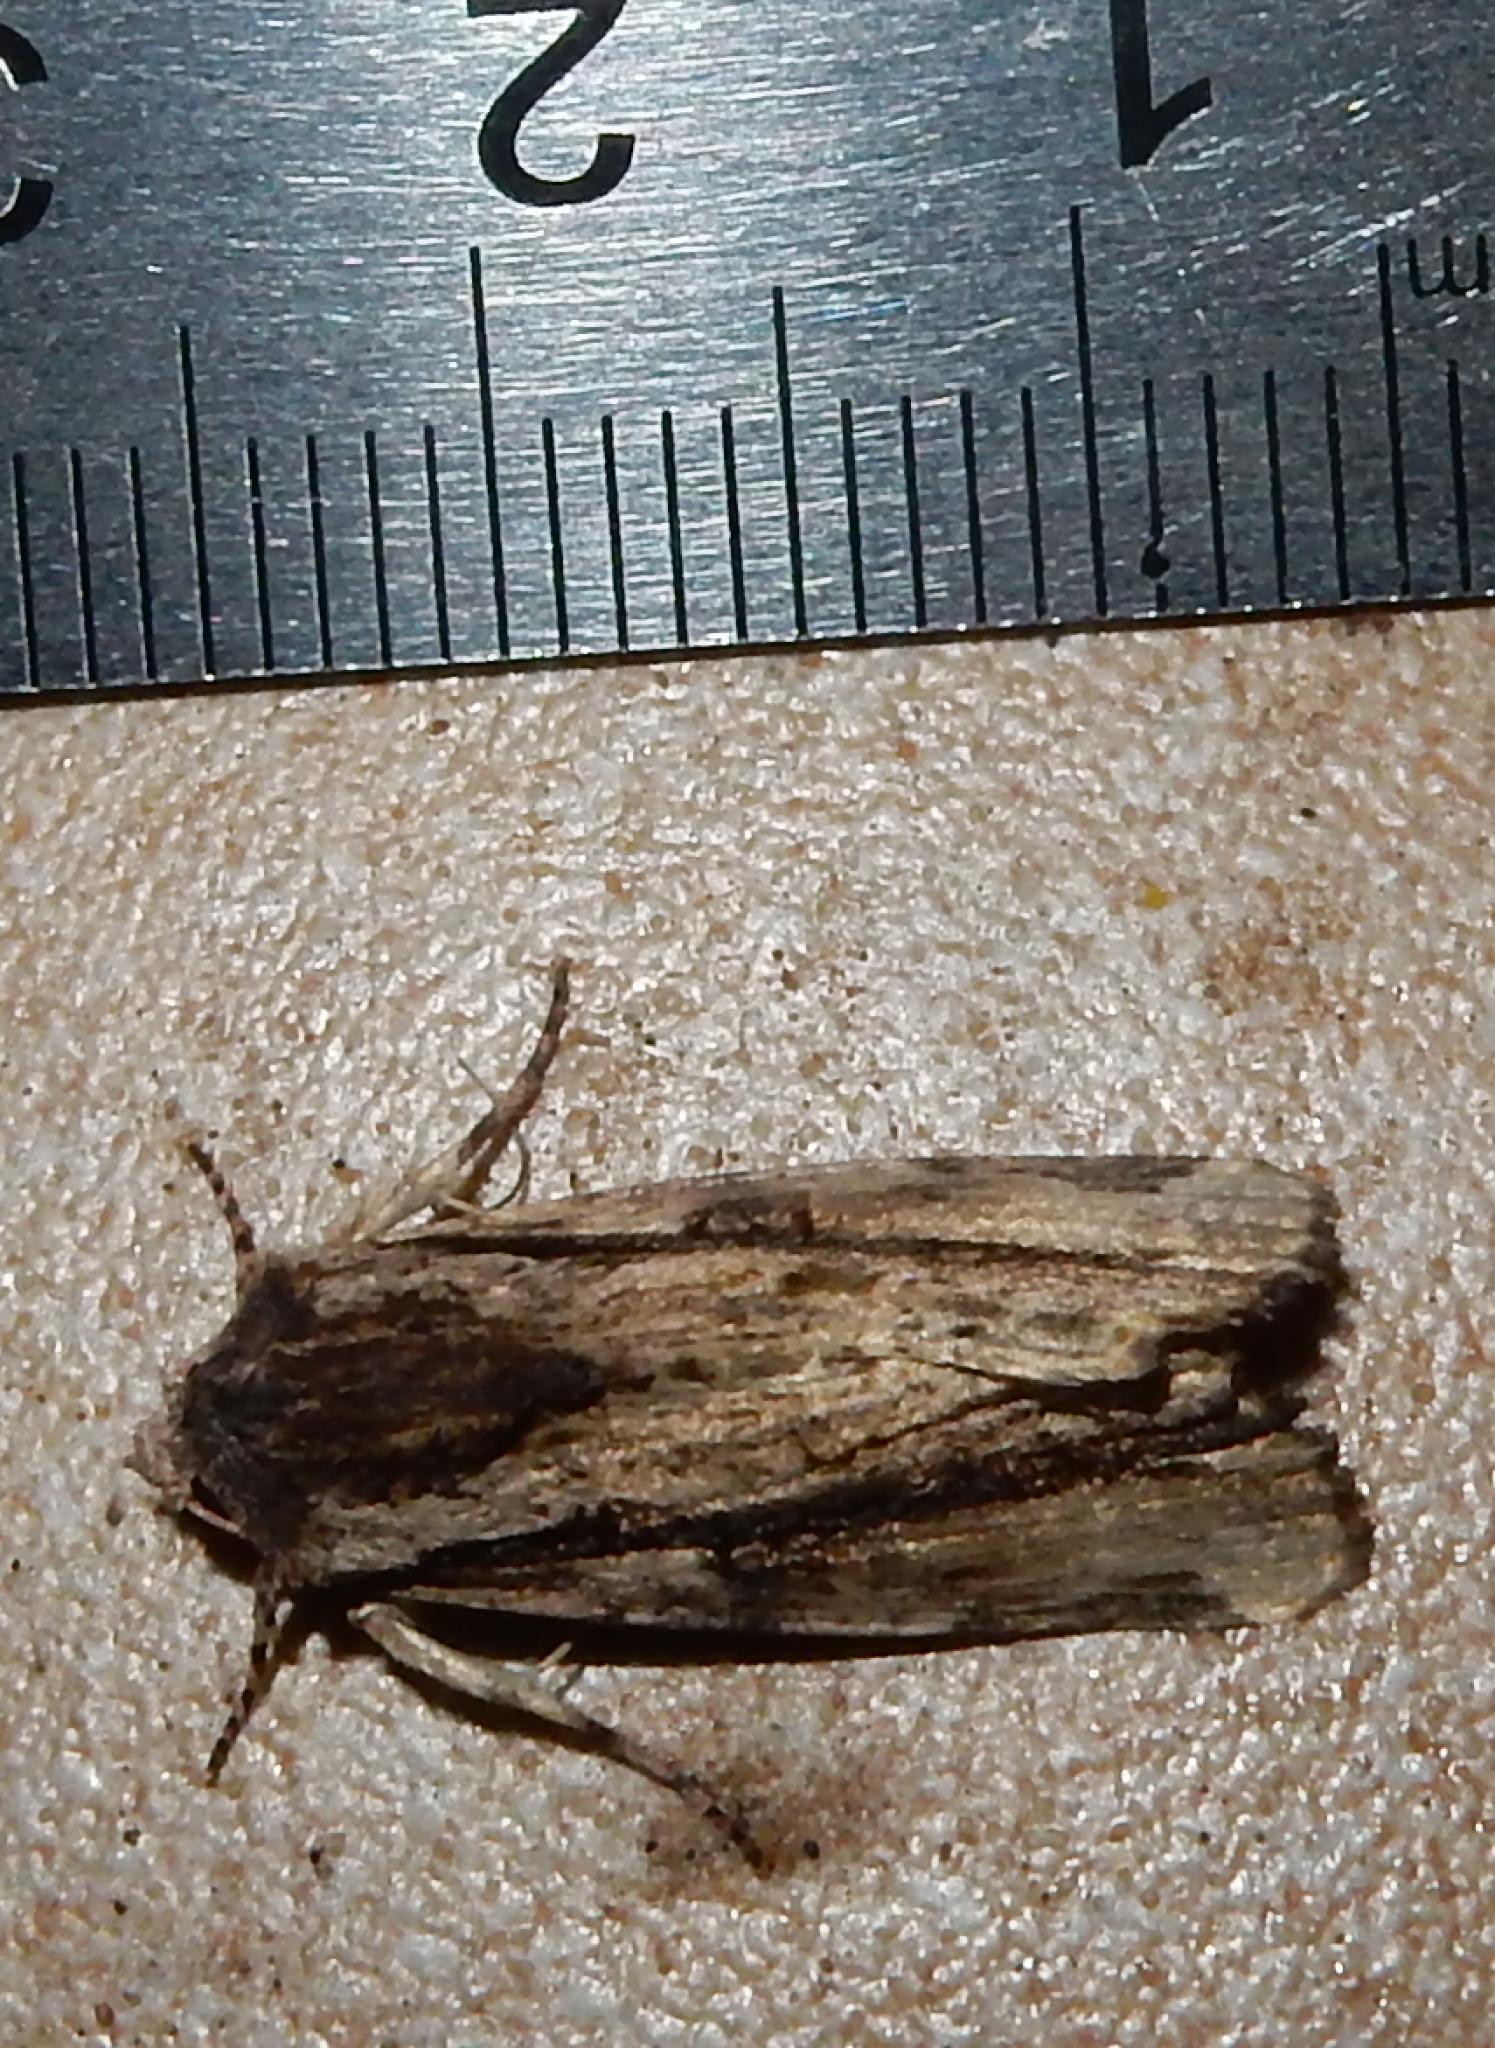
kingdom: Animalia
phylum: Arthropoda
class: Insecta
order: Lepidoptera
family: Noctuidae
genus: Magusa
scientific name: Magusa versicolora
